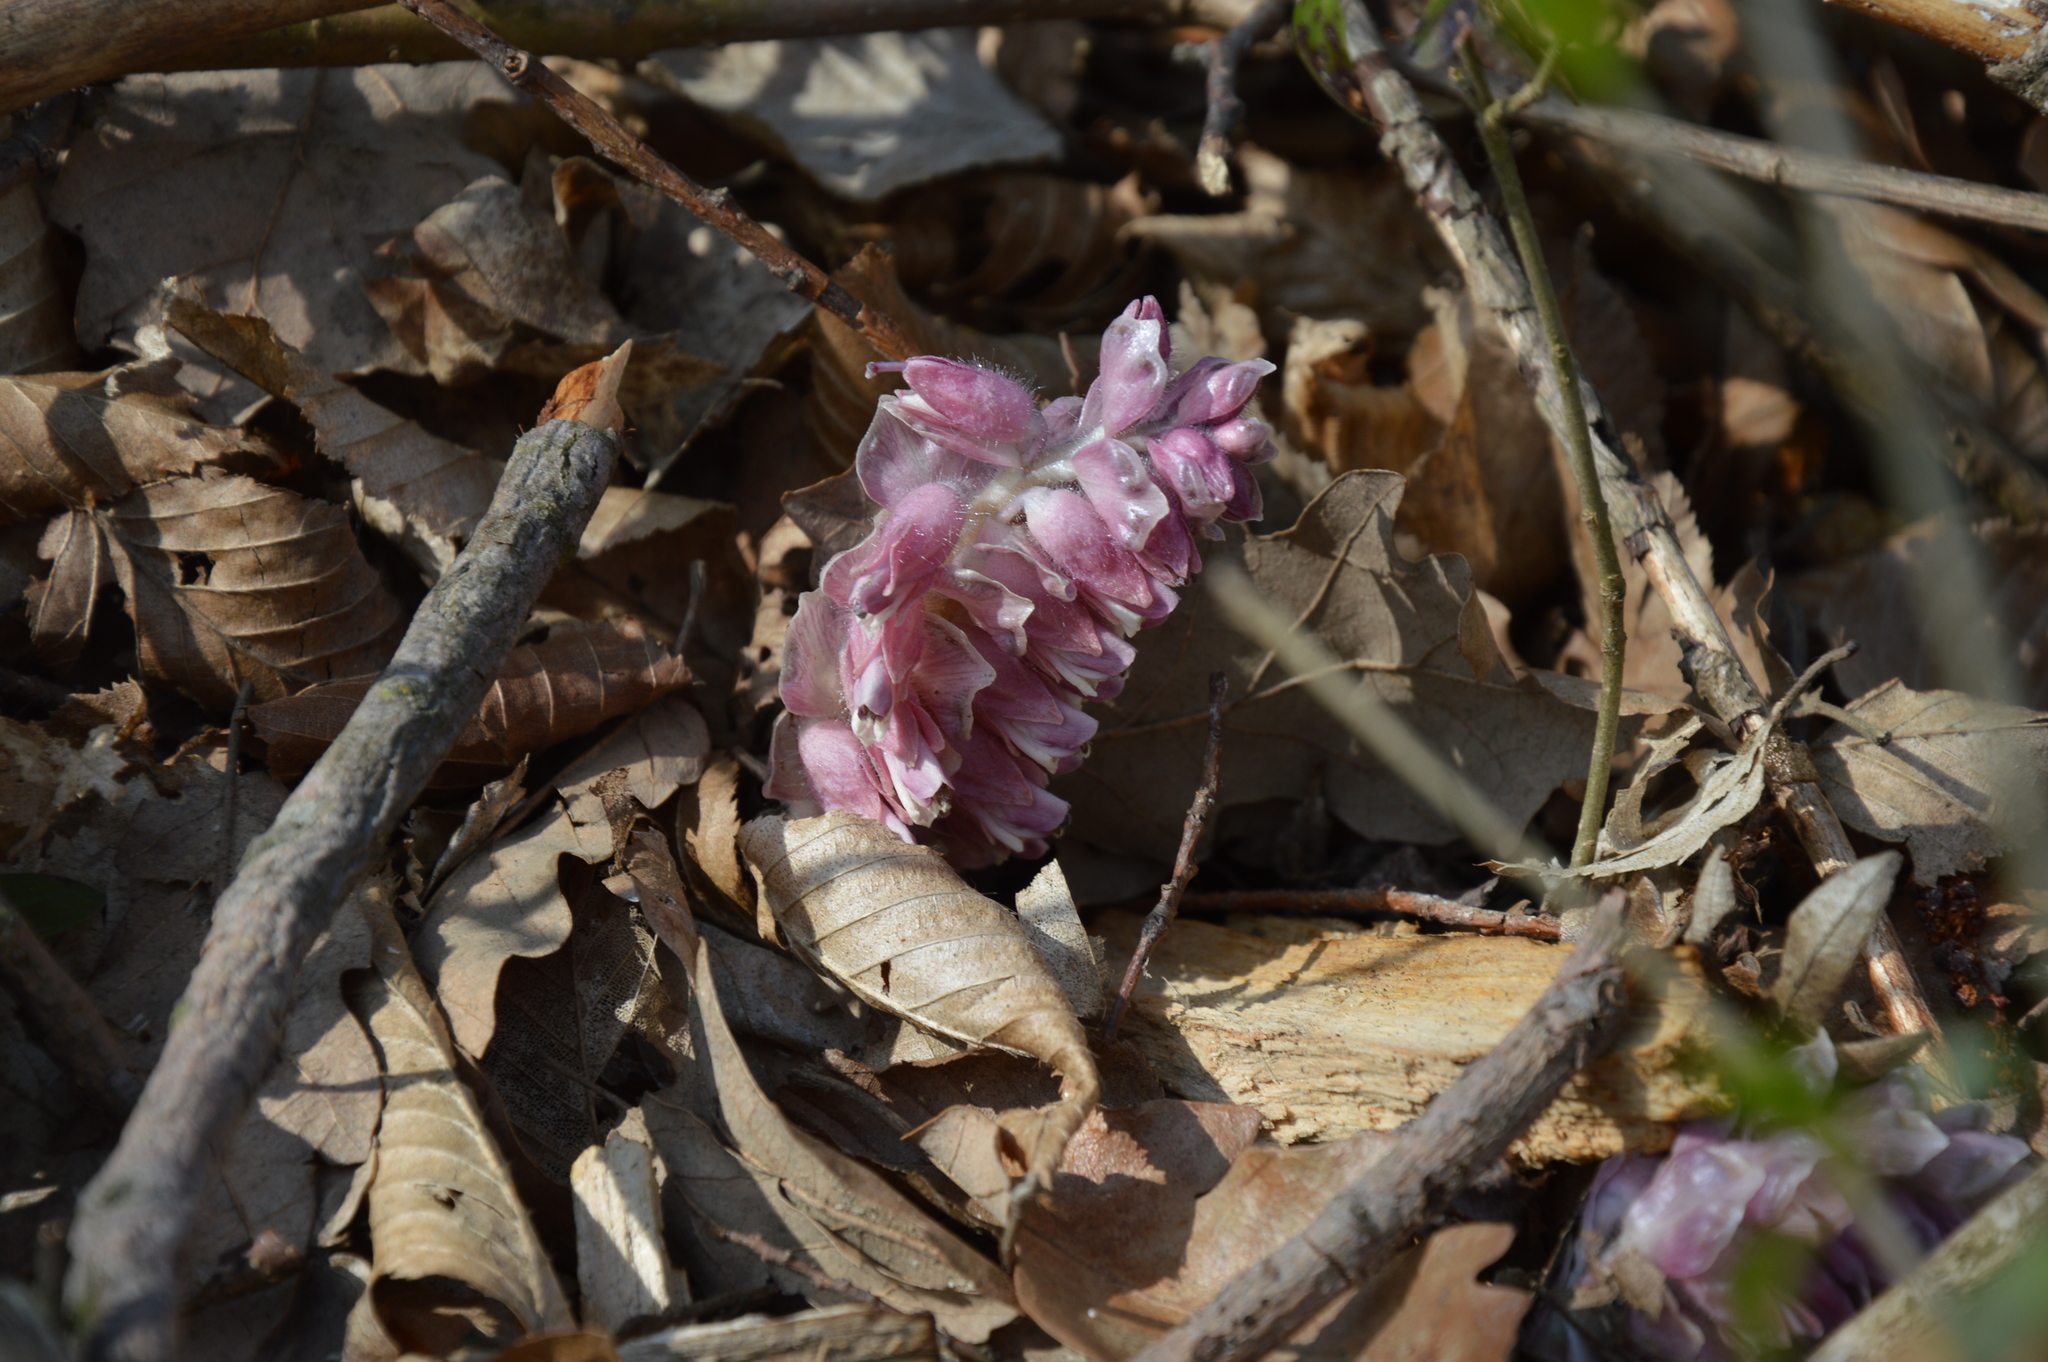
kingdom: Plantae
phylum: Tracheophyta
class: Magnoliopsida
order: Lamiales
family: Orobanchaceae
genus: Lathraea
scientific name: Lathraea squamaria
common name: Toothwort
